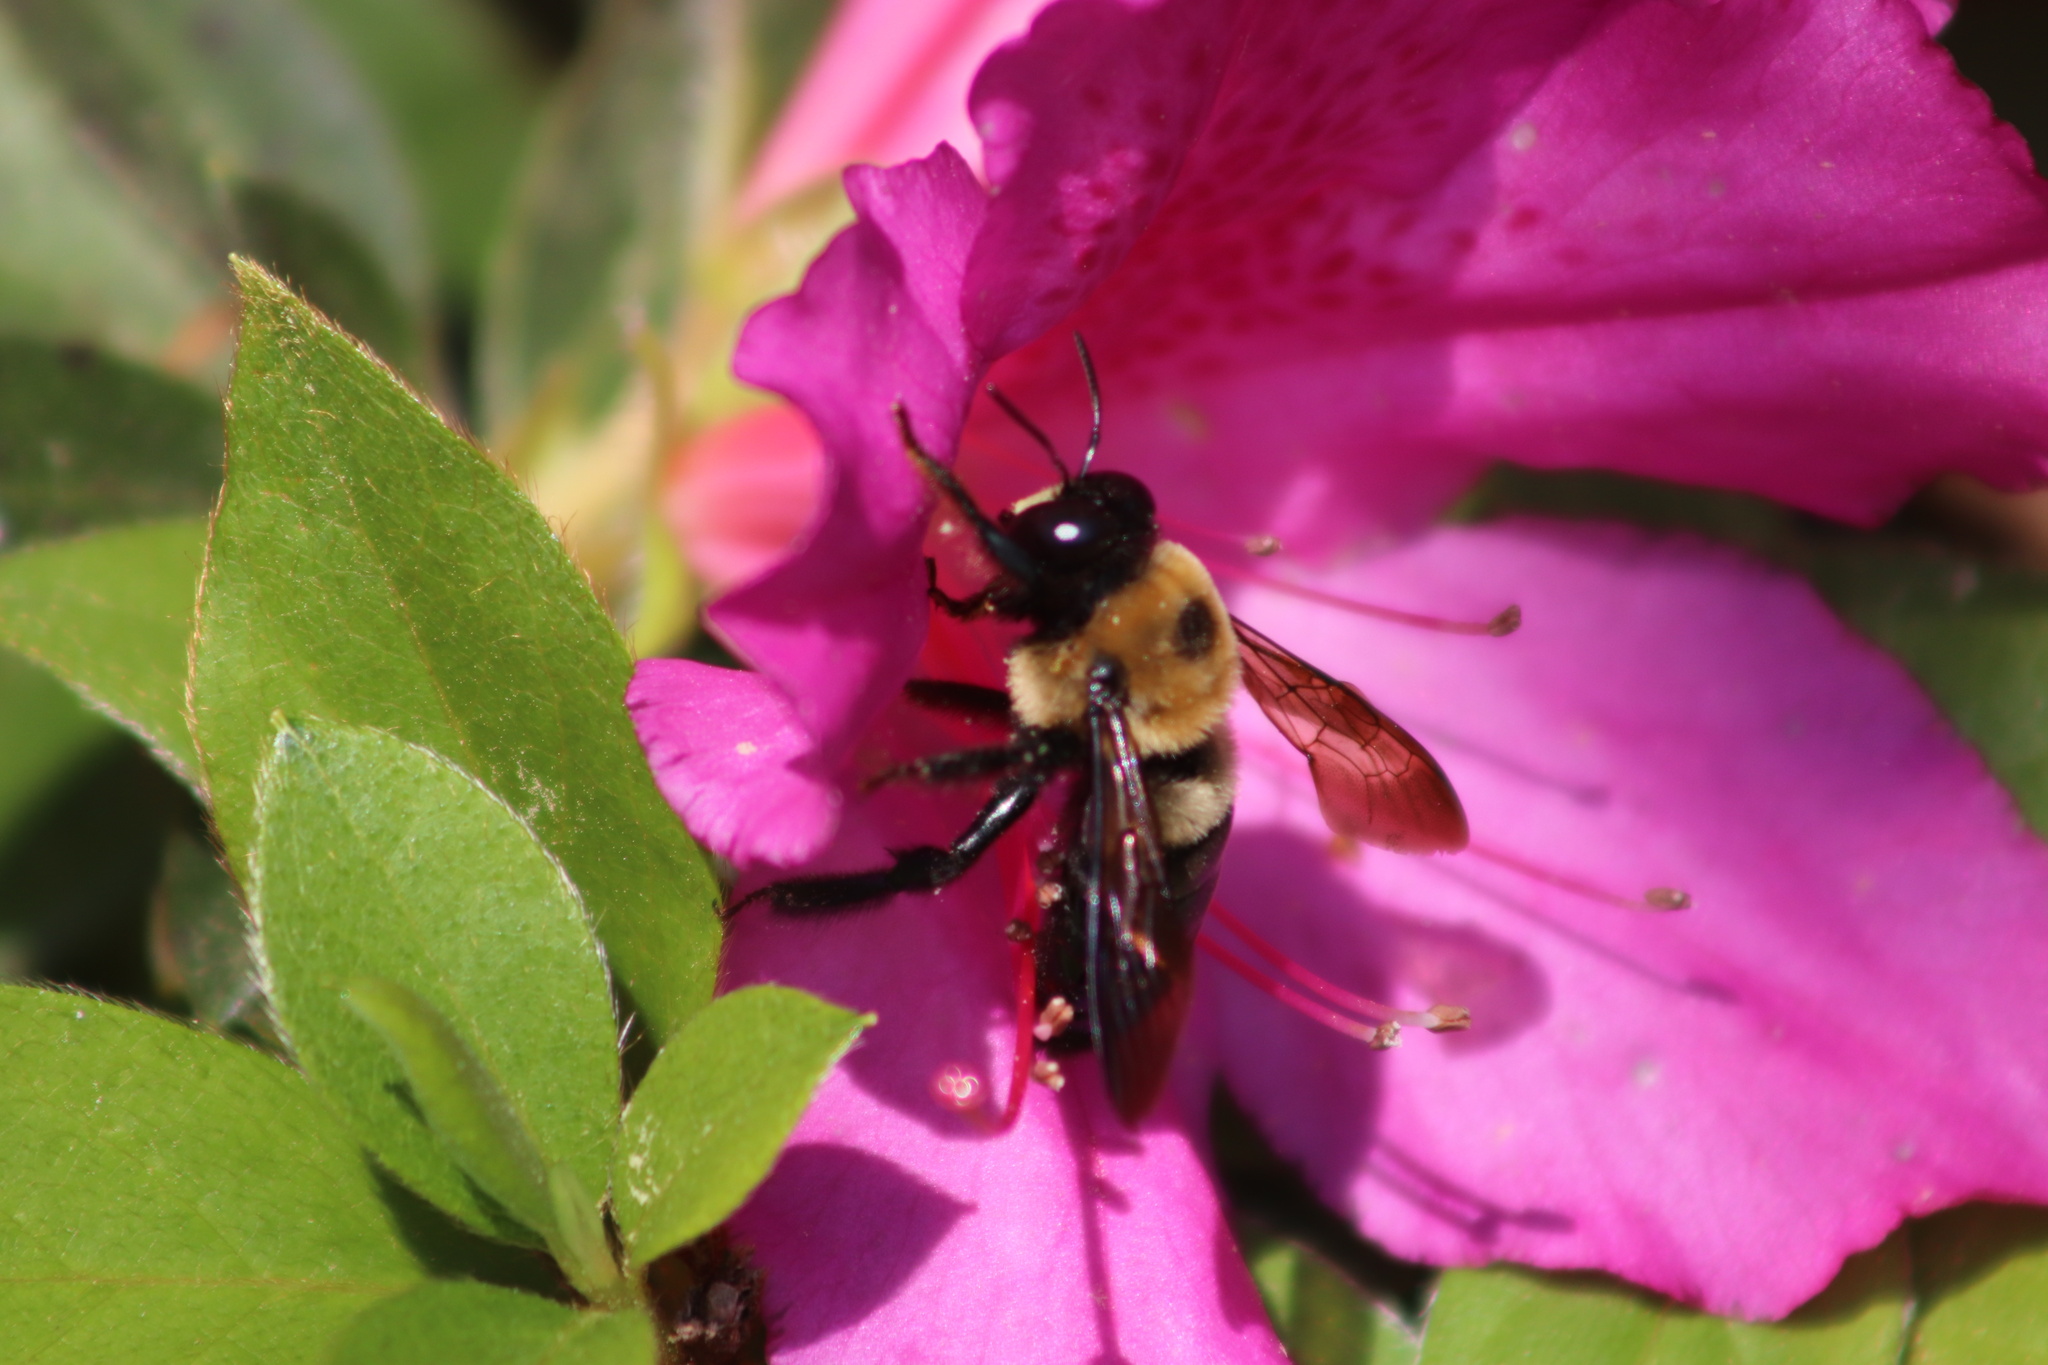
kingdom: Animalia
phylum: Arthropoda
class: Insecta
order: Hymenoptera
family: Apidae
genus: Xylocopa
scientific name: Xylocopa virginica
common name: Carpenter bee
